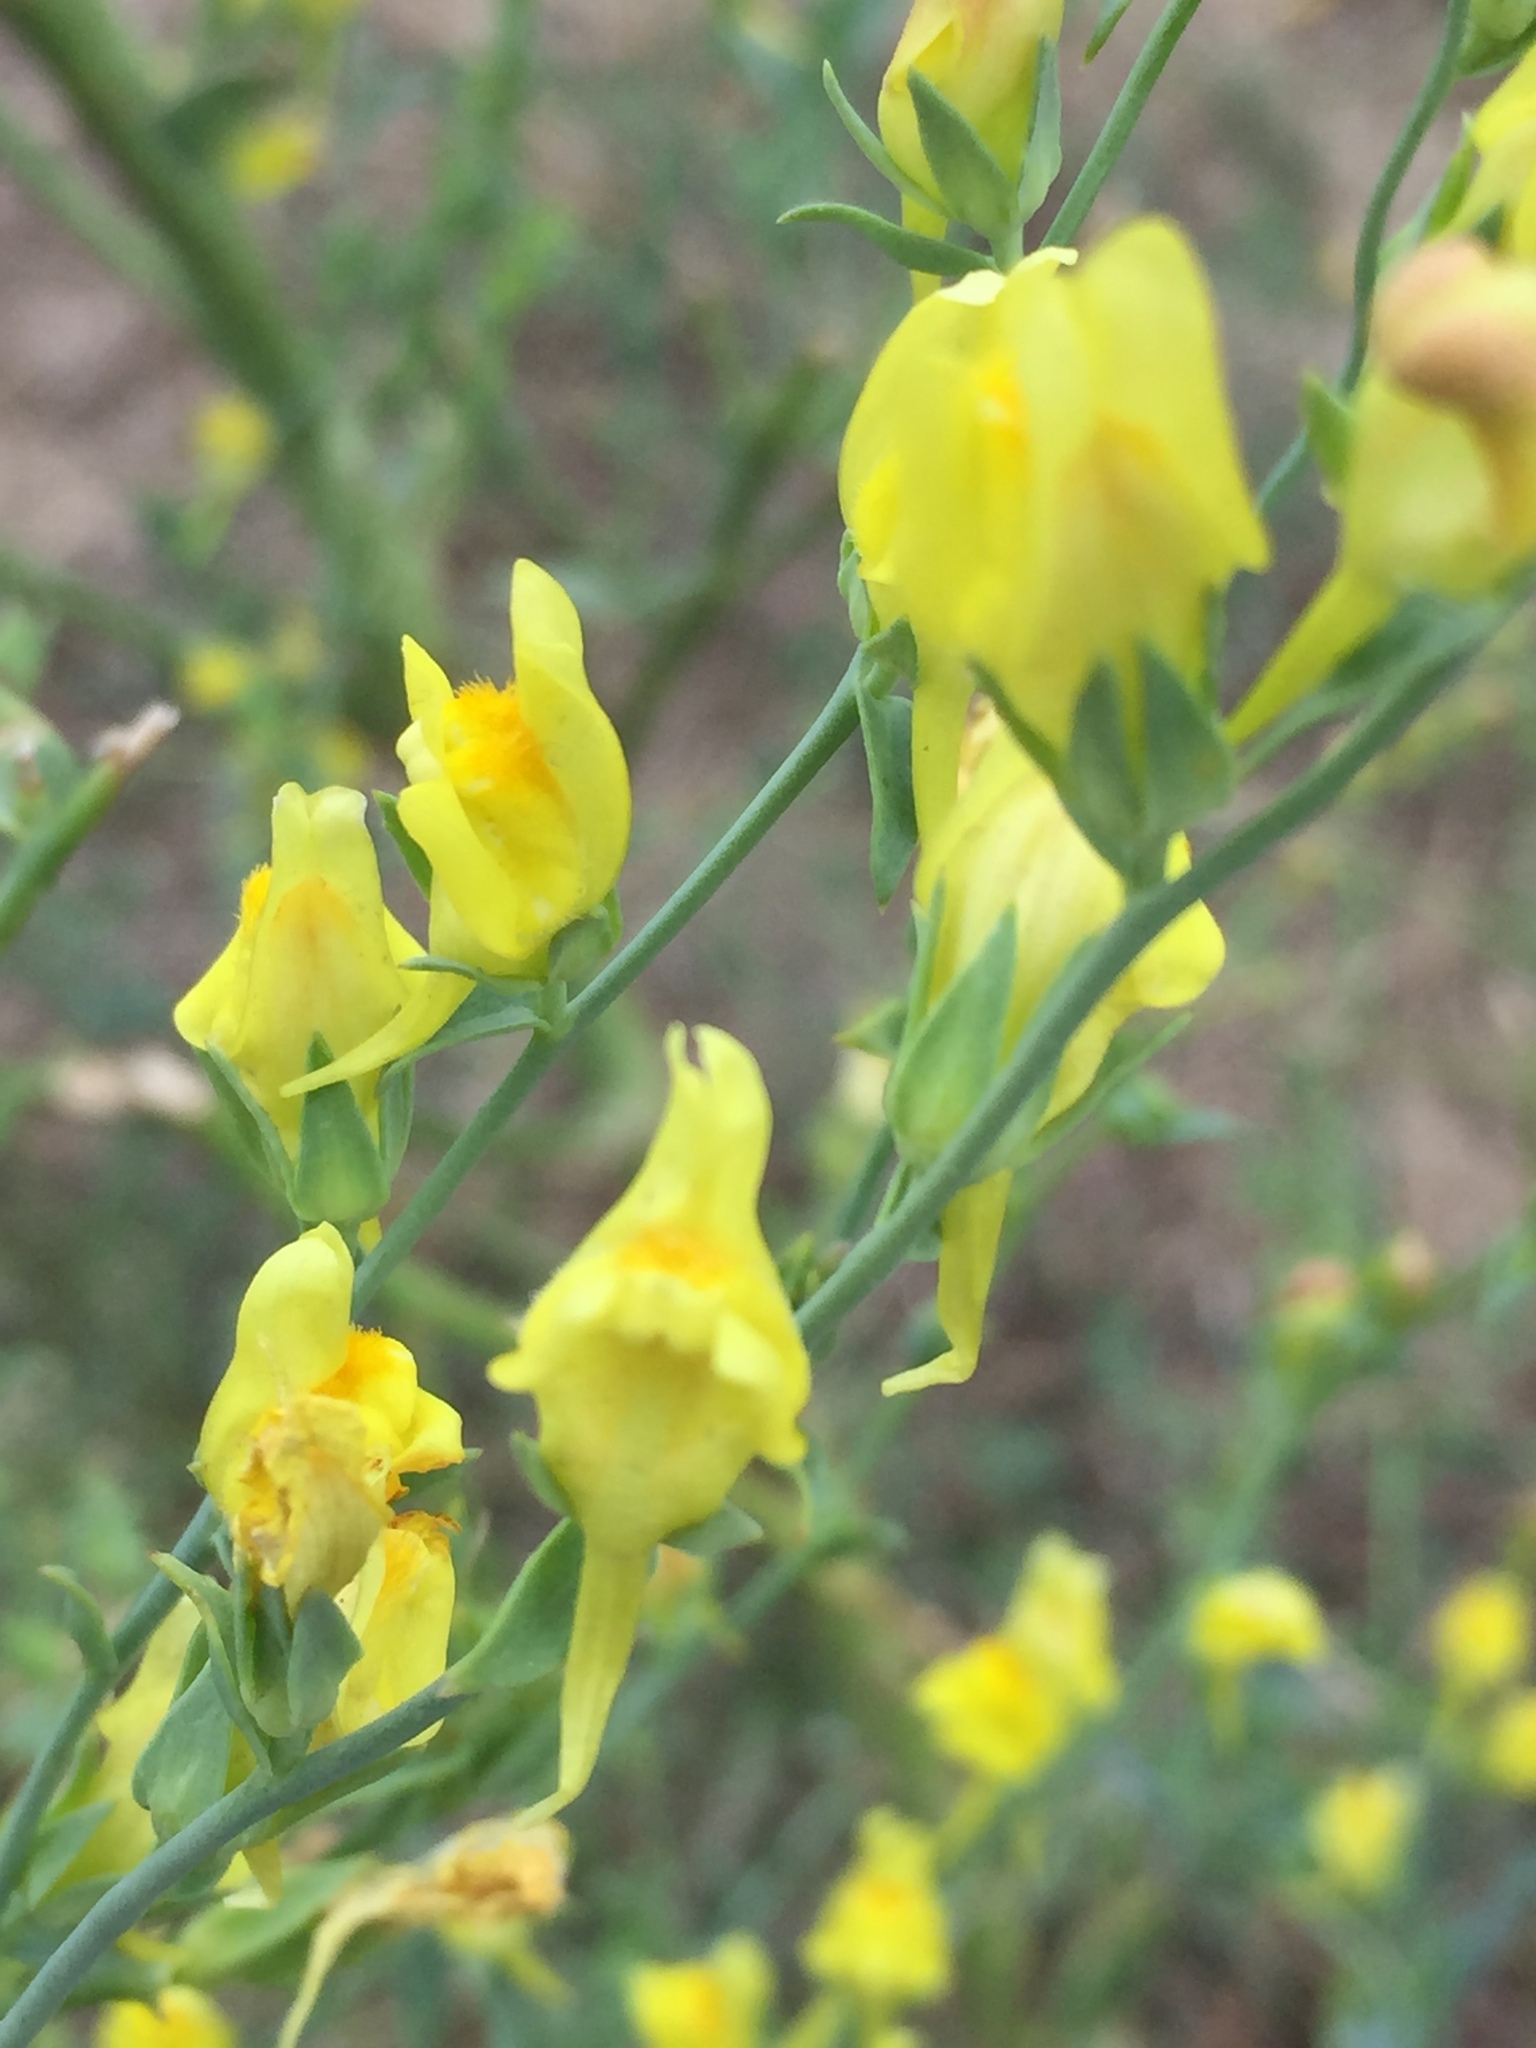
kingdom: Plantae
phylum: Tracheophyta
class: Magnoliopsida
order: Lamiales
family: Plantaginaceae
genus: Linaria
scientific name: Linaria genistifolia
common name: Broomleaf toadflax
